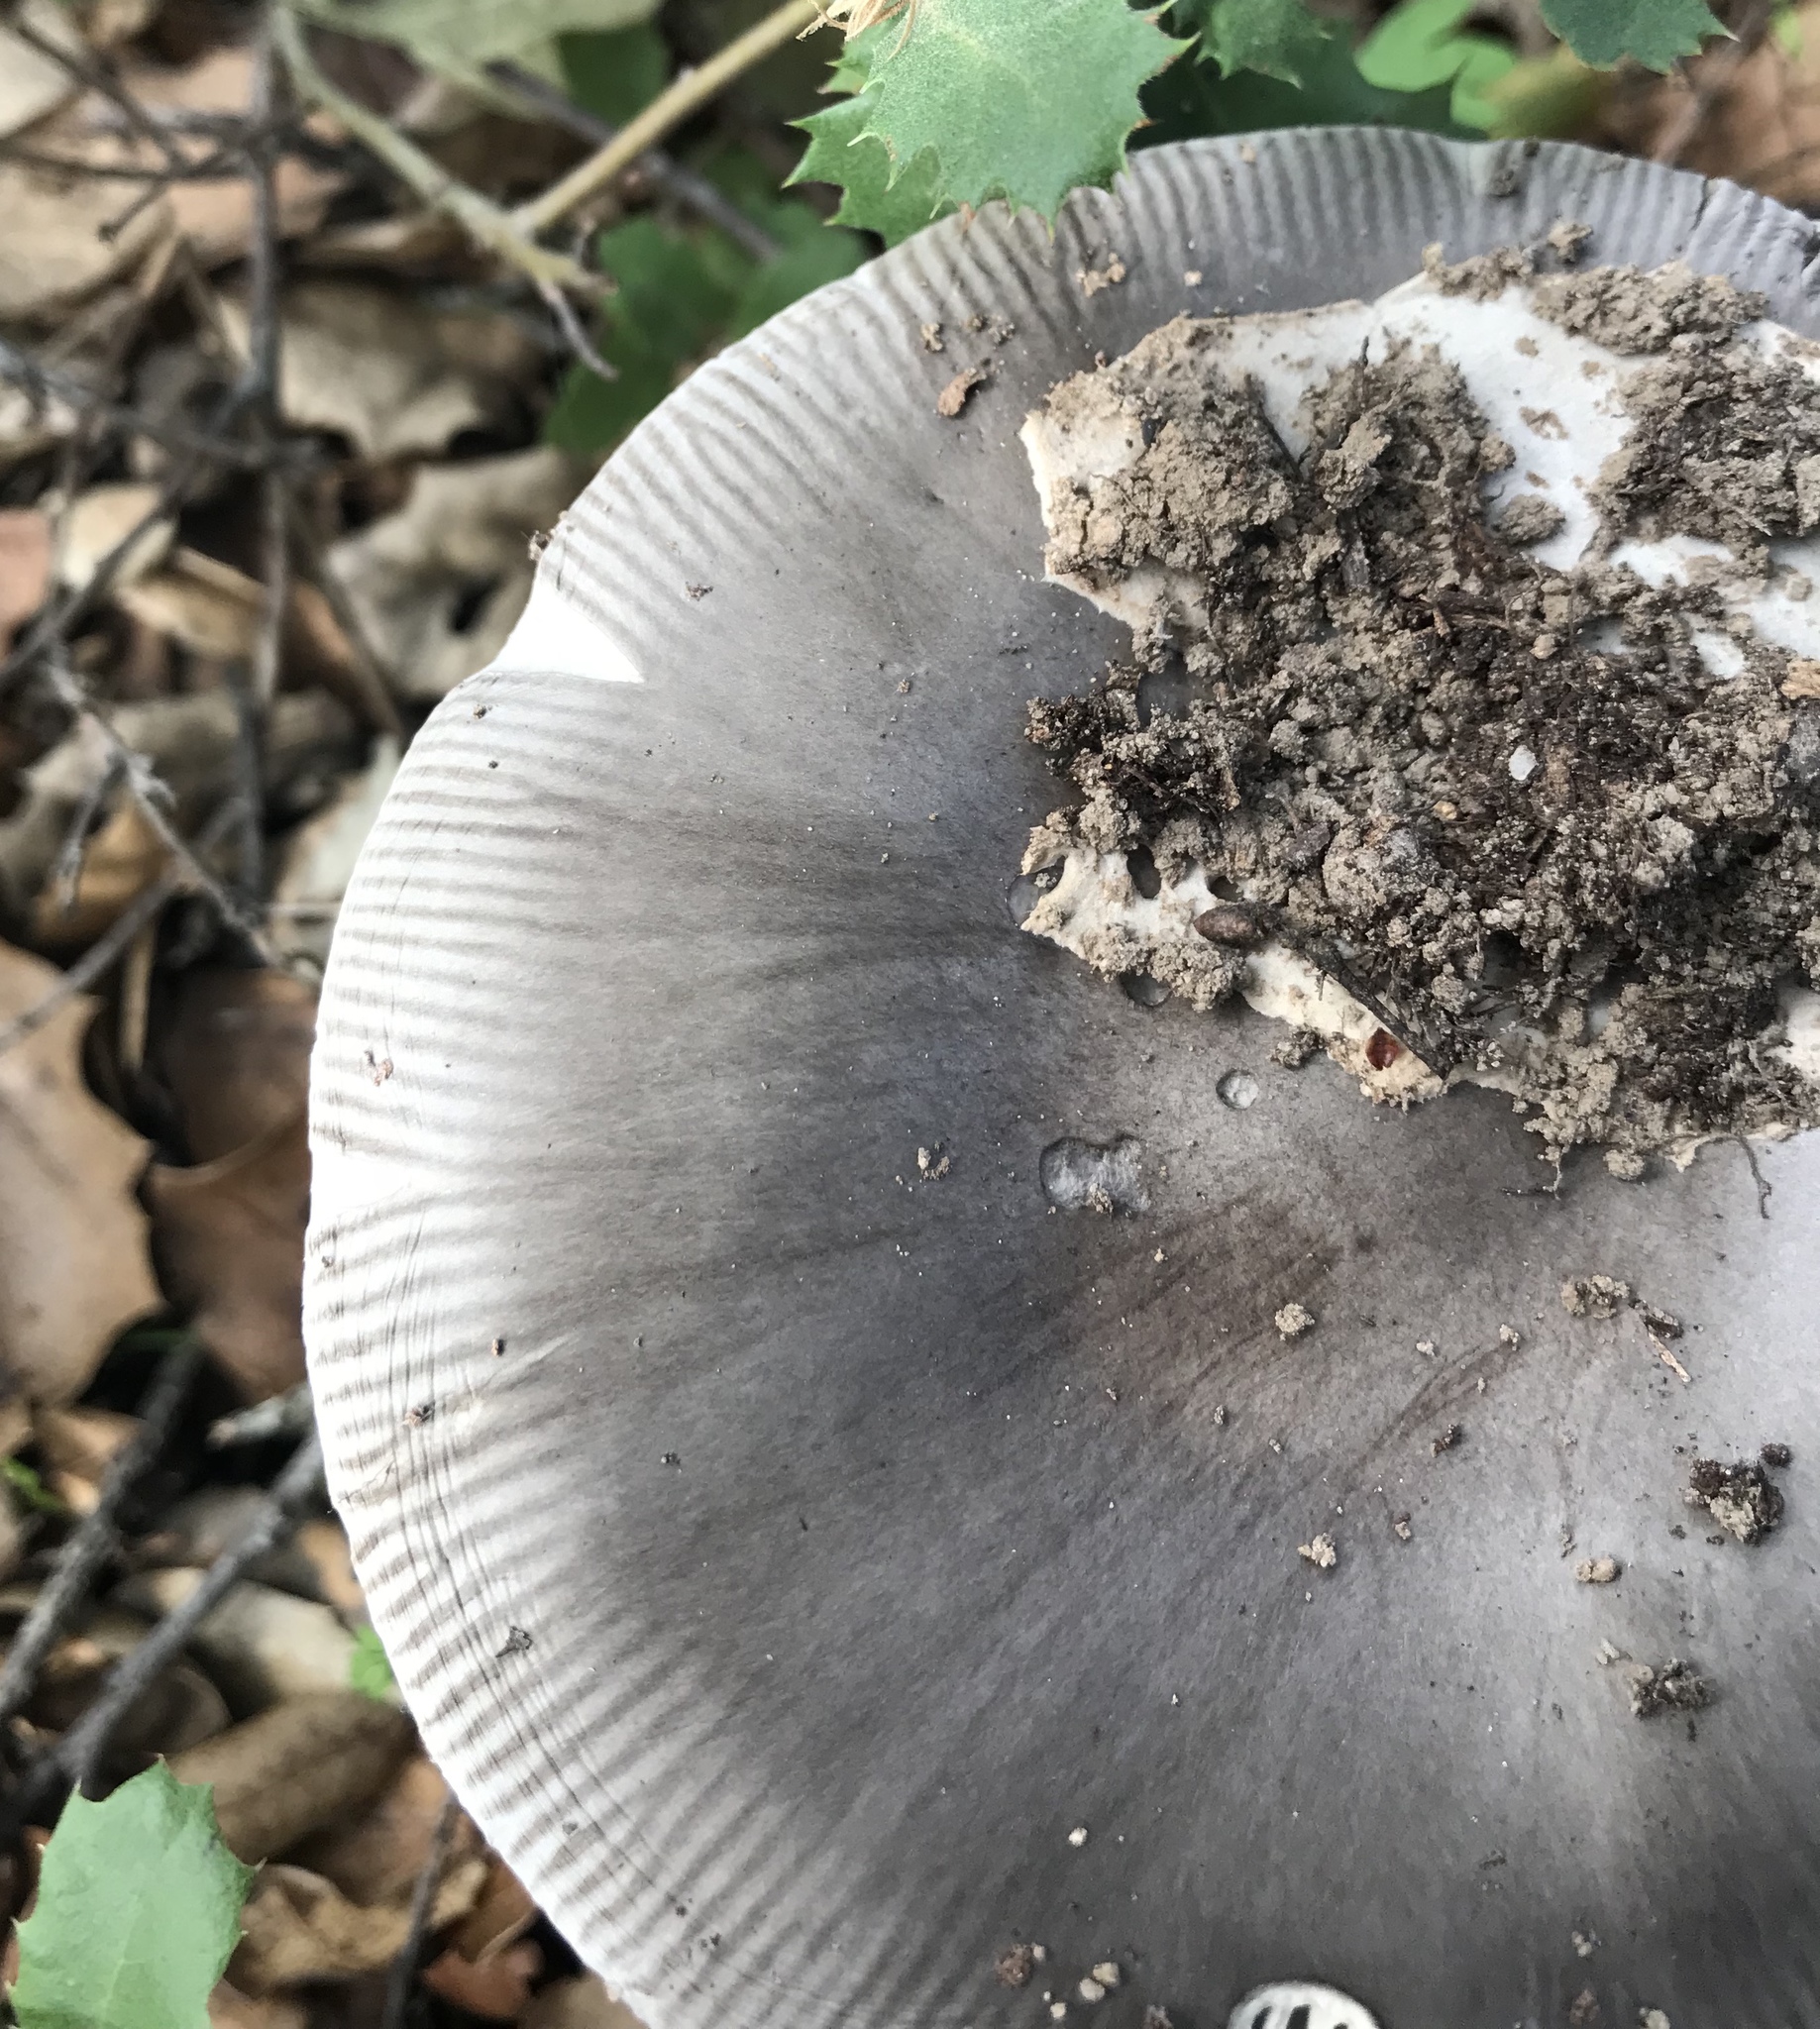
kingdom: Fungi
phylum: Basidiomycota
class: Agaricomycetes
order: Agaricales
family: Amanitaceae
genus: Amanita
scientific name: Amanita constricta
